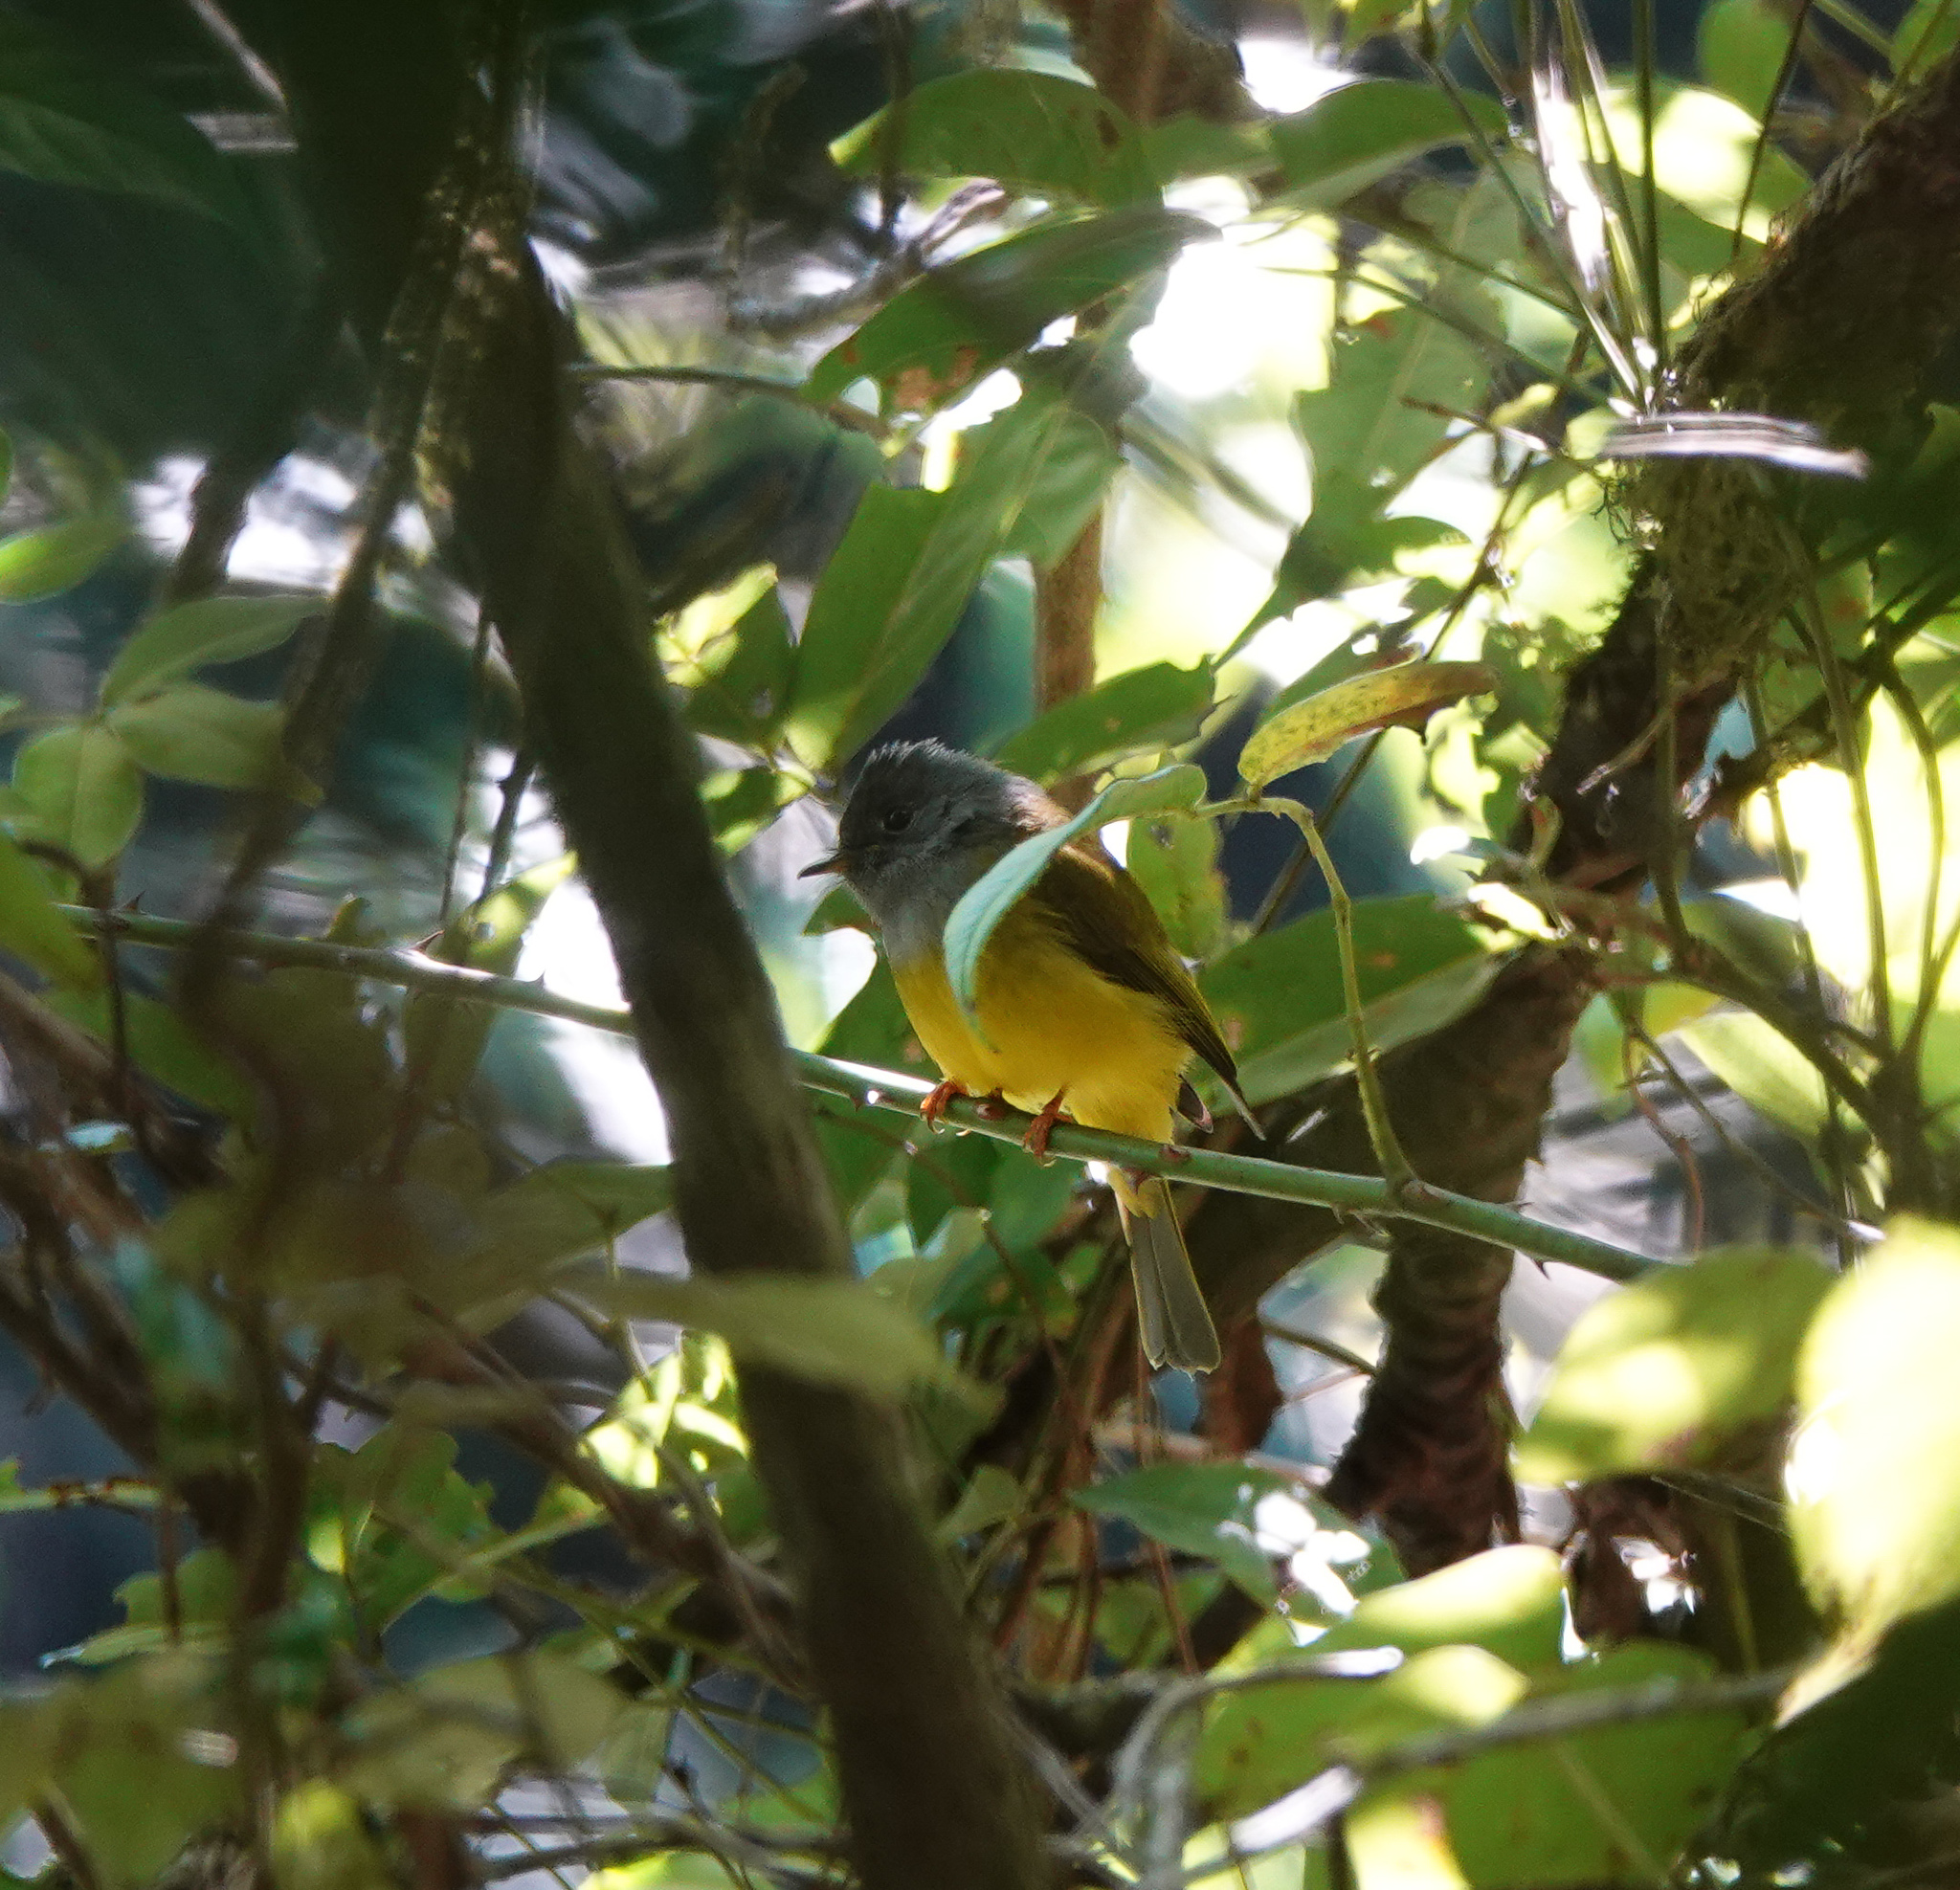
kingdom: Animalia
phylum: Chordata
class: Aves
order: Passeriformes
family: Stenostiridae
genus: Culicicapa
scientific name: Culicicapa ceylonensis
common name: Grey-headed canary-flycatcher
